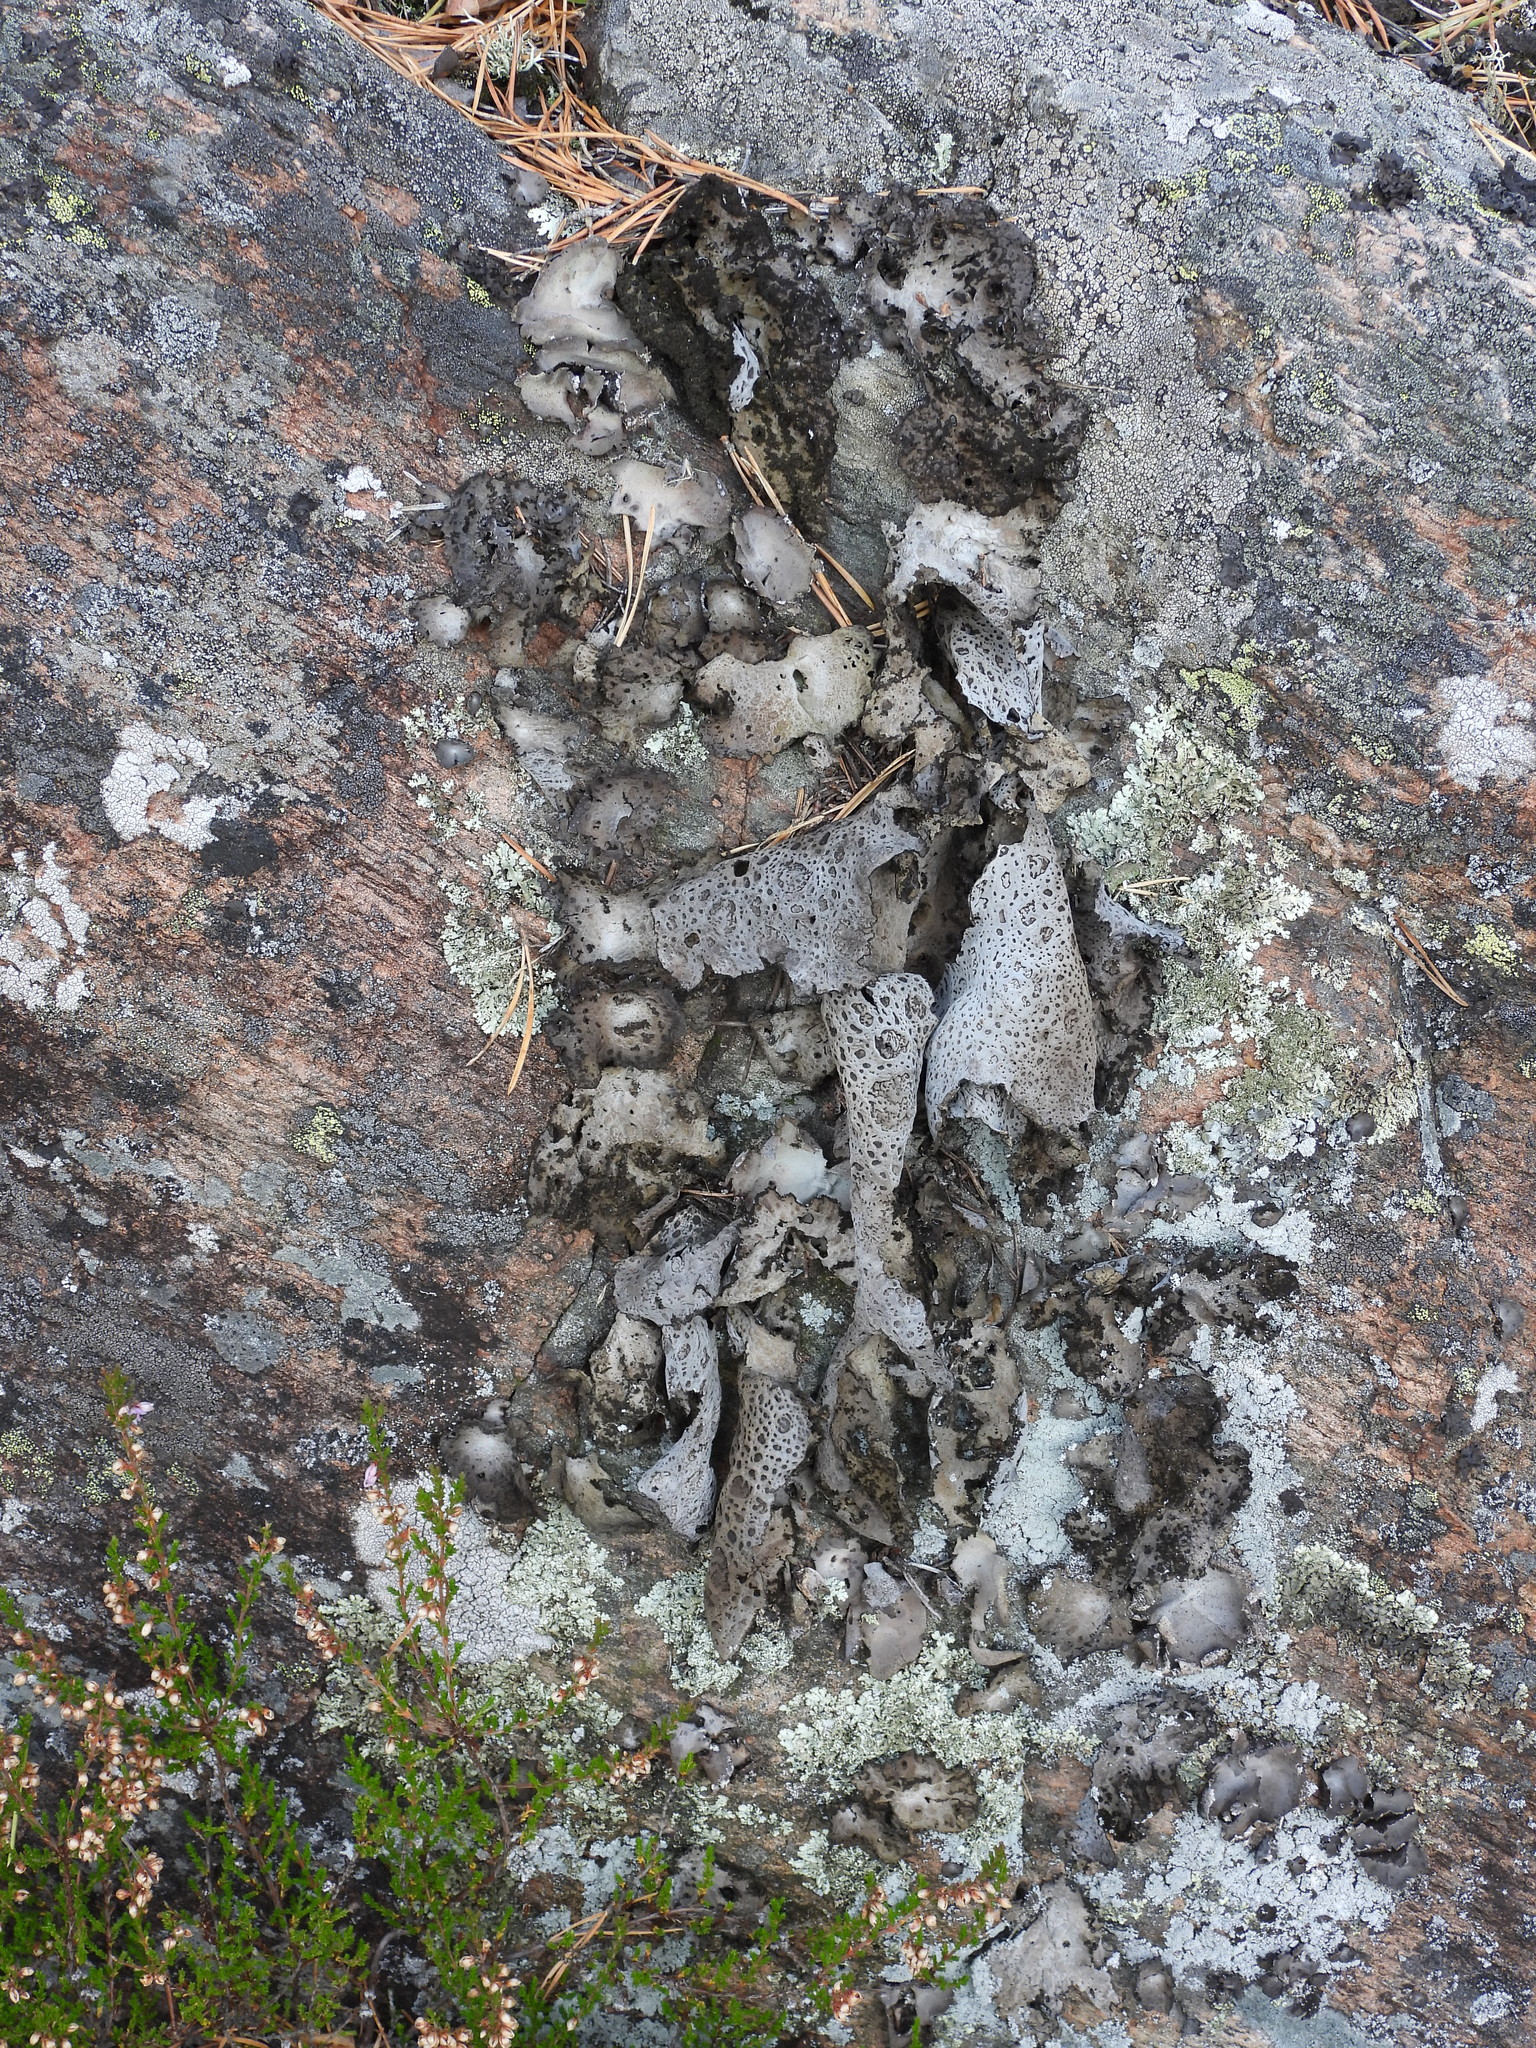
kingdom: Fungi
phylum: Ascomycota
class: Lecanoromycetes
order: Umbilicariales
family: Umbilicariaceae
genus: Lasallia
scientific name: Lasallia pustulata
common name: Blistered toadskin lichen
